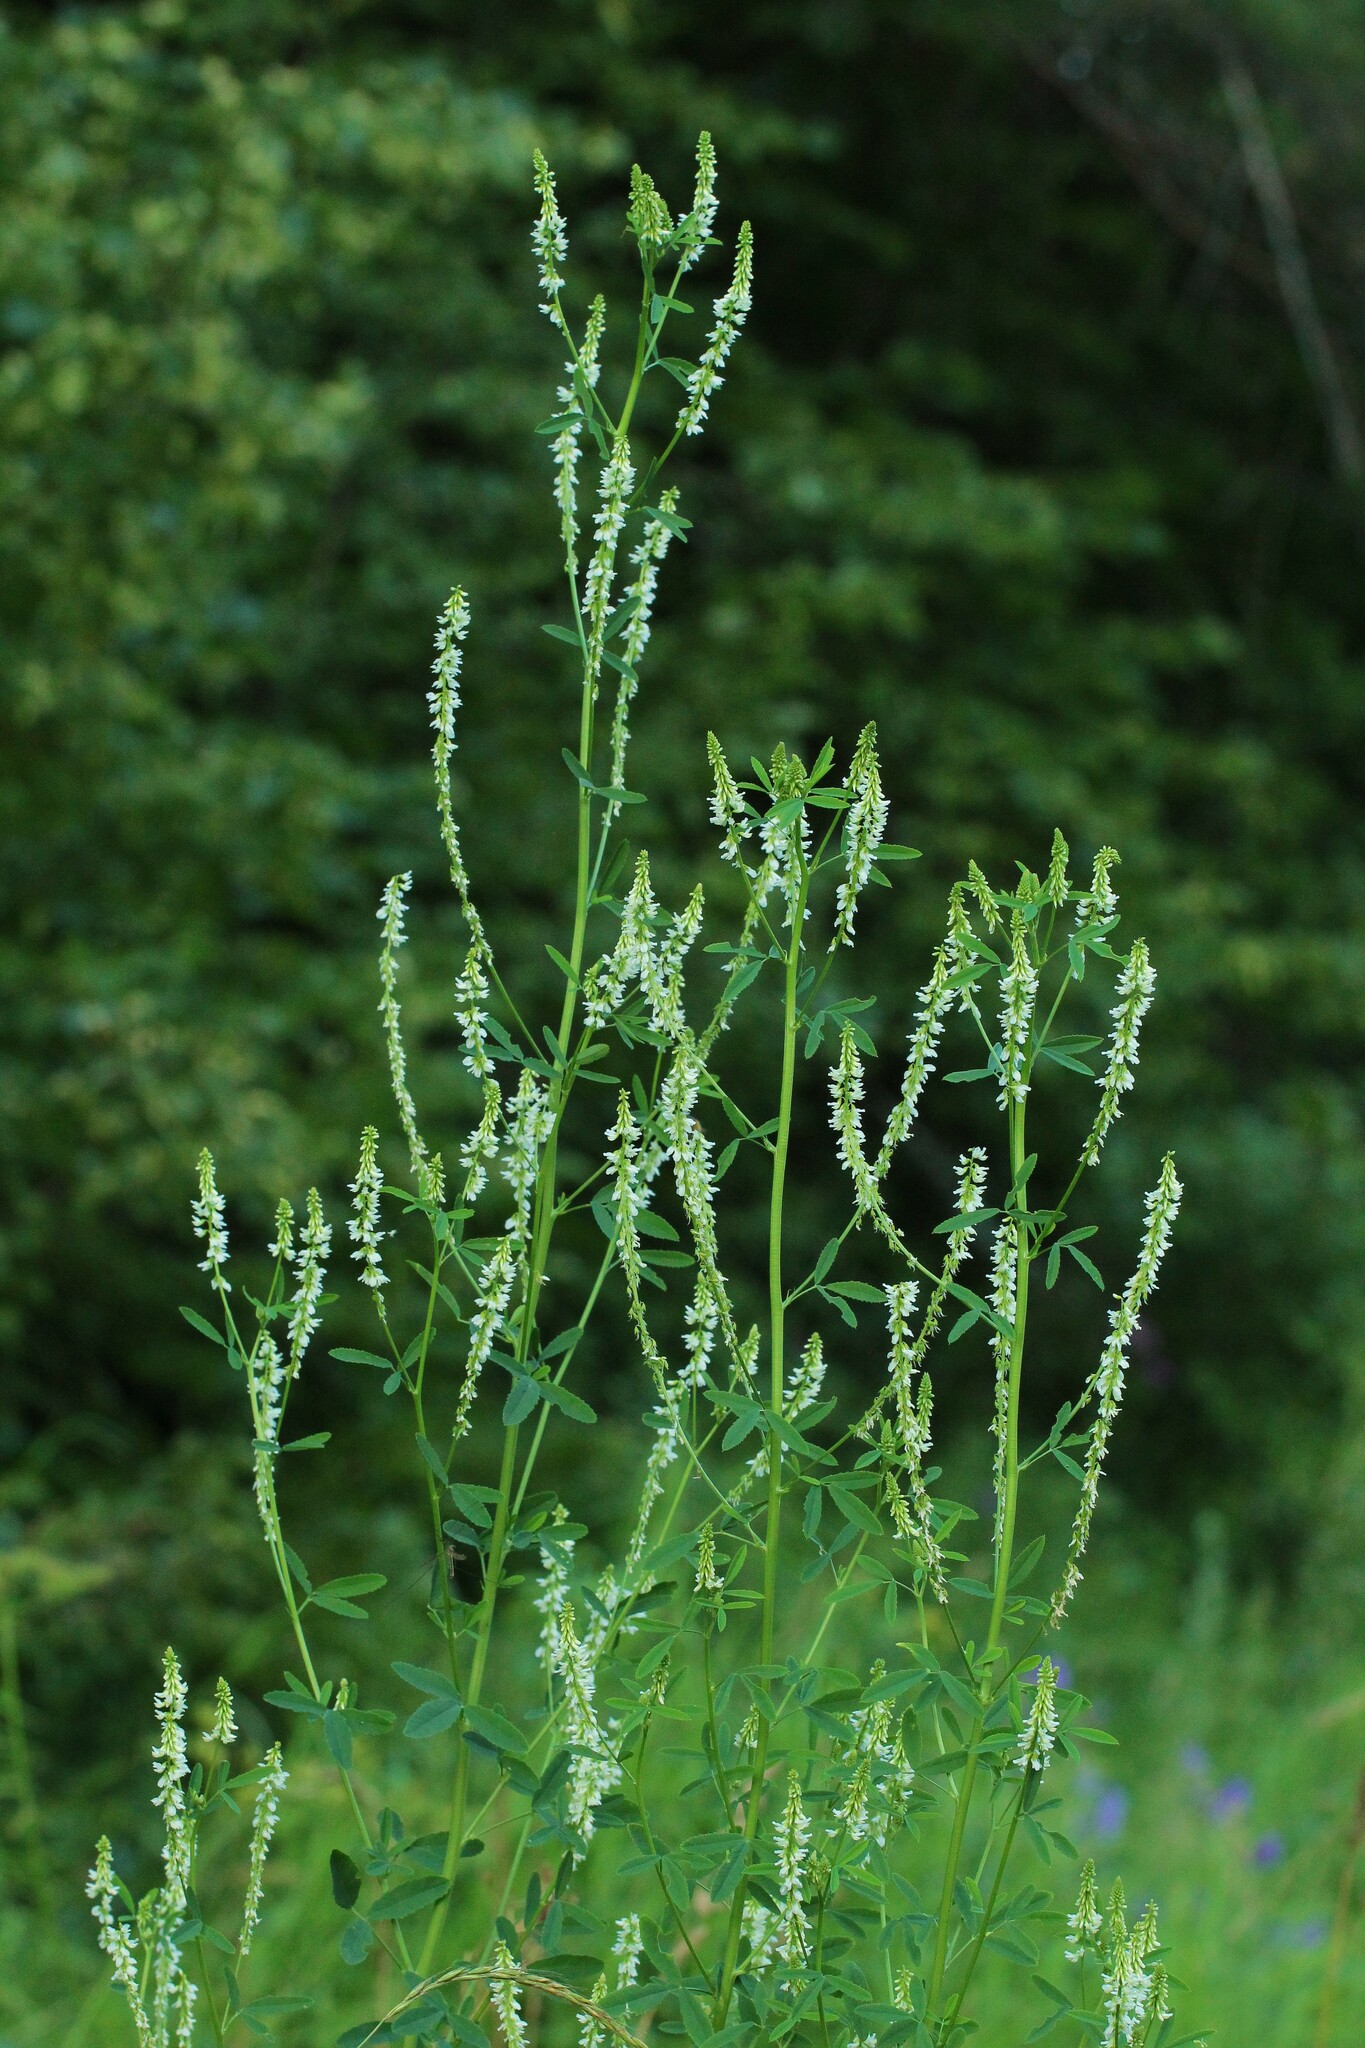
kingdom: Plantae
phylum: Tracheophyta
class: Magnoliopsida
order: Fabales
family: Fabaceae
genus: Melilotus
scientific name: Melilotus albus
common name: White melilot
